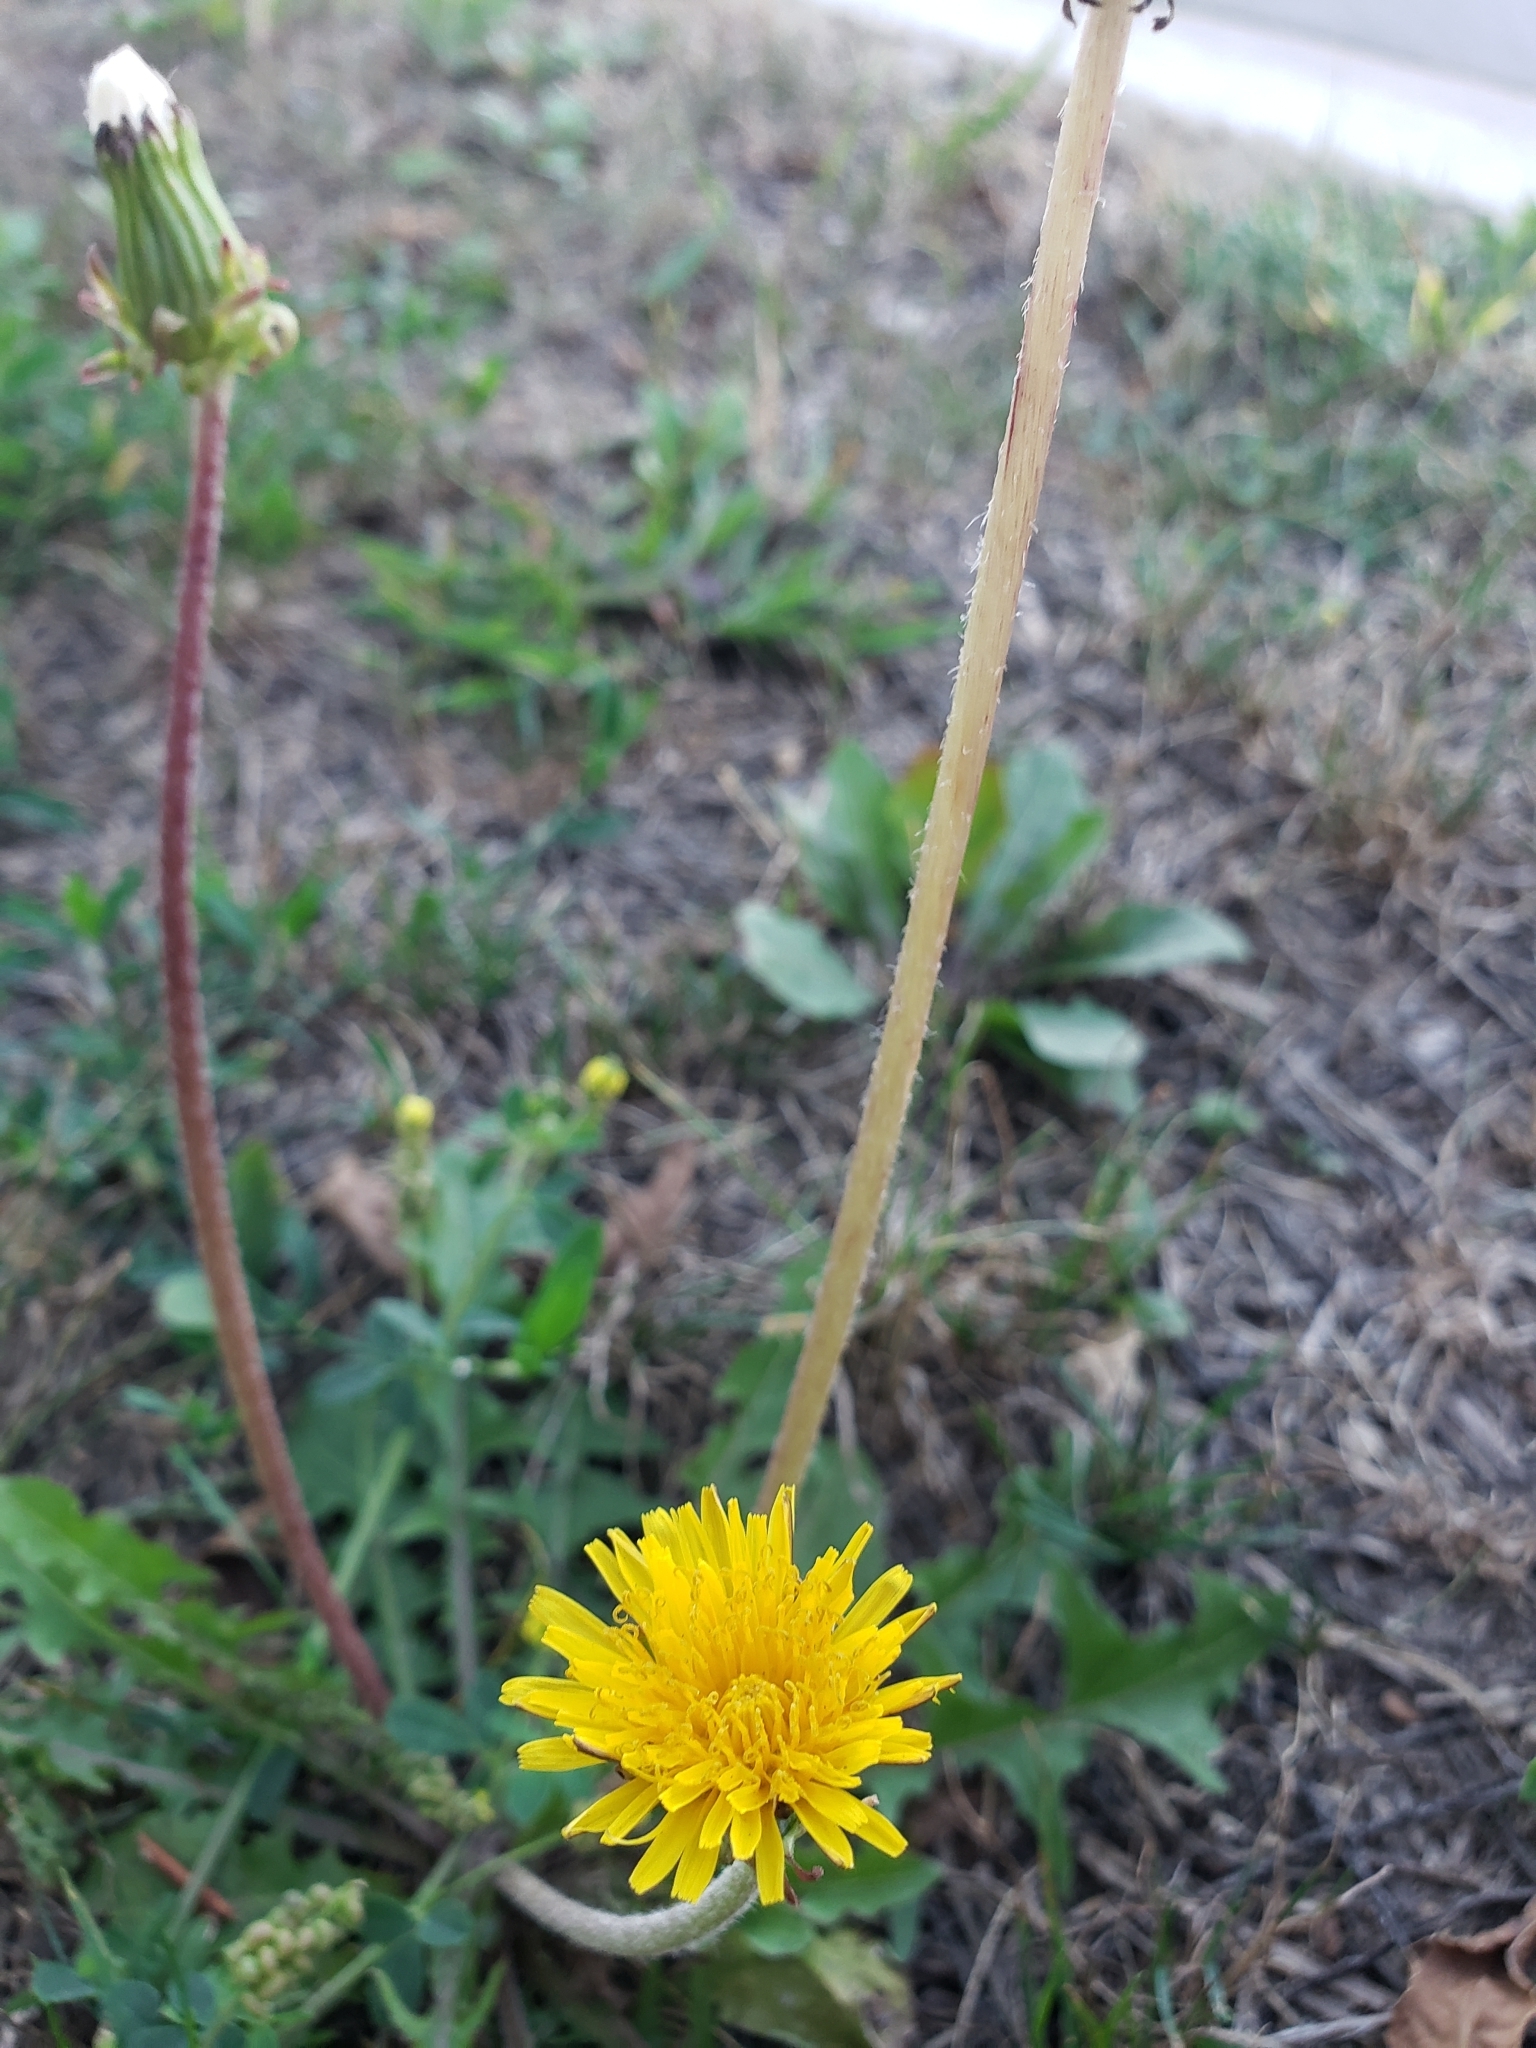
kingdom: Plantae
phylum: Tracheophyta
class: Magnoliopsida
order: Asterales
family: Asteraceae
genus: Taraxacum
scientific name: Taraxacum officinale
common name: Common dandelion
